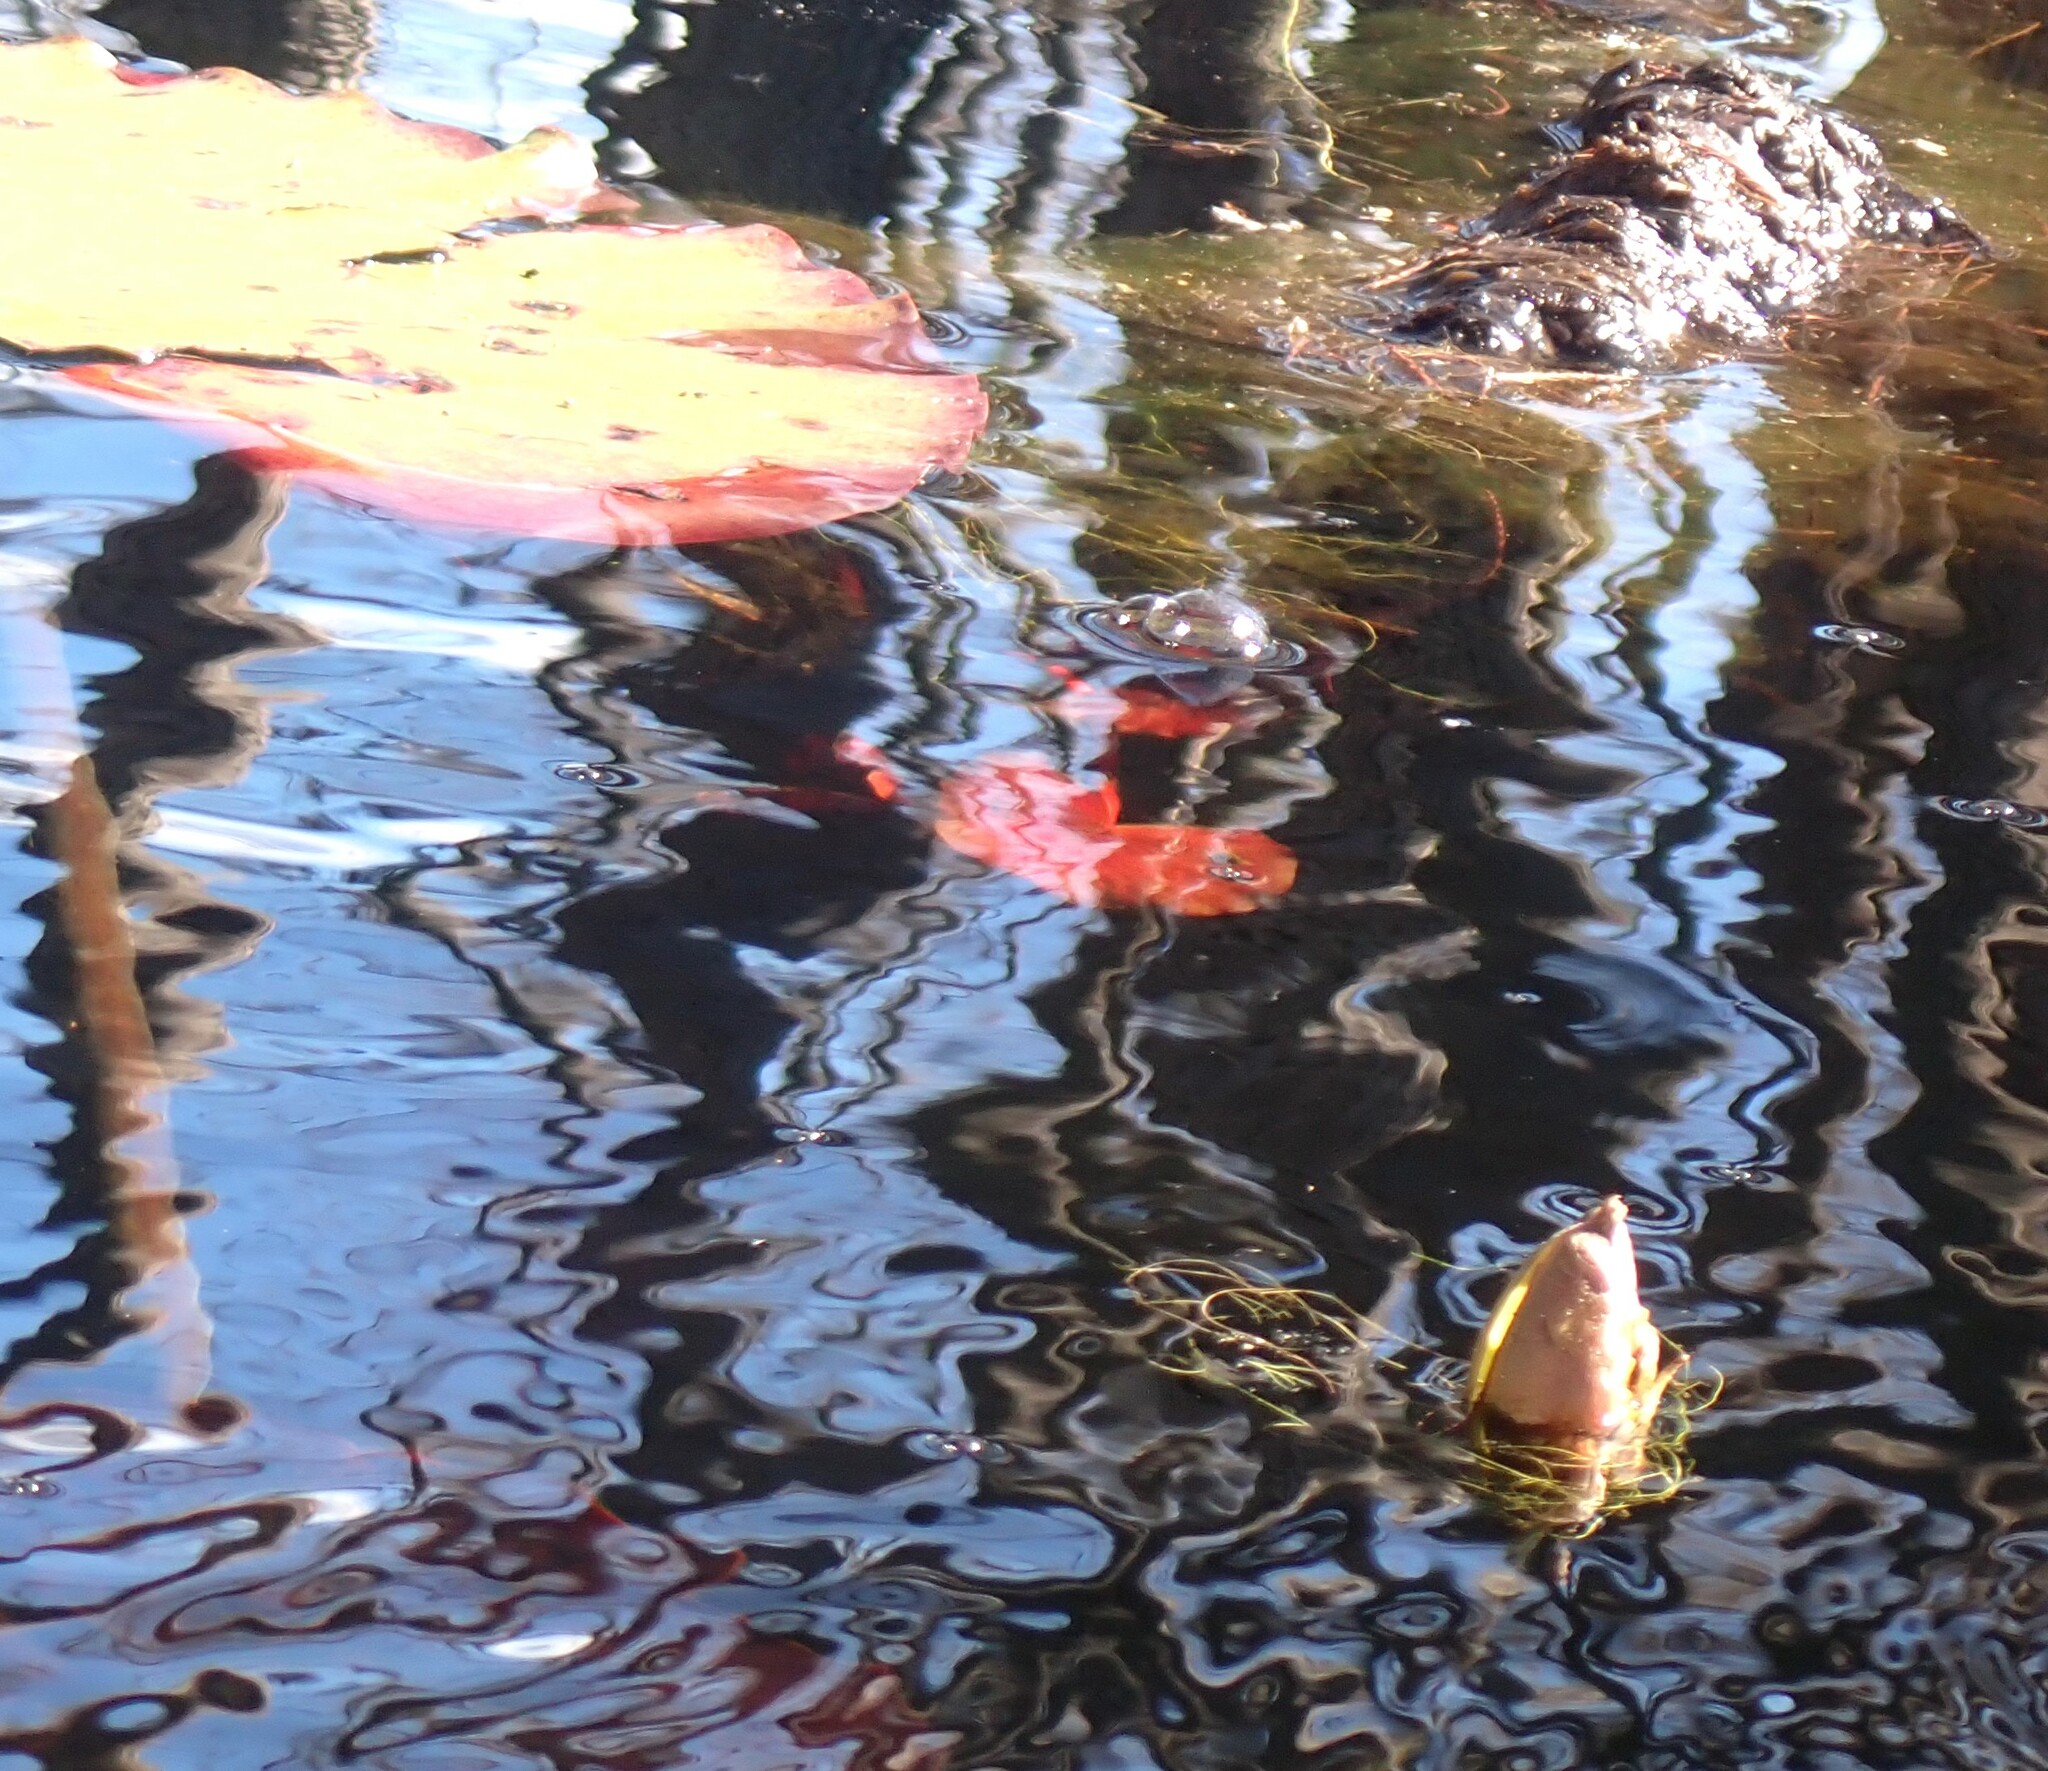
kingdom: Plantae
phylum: Tracheophyta
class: Magnoliopsida
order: Nymphaeales
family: Nymphaeaceae
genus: Nymphaea
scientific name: Nymphaea odorata
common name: Fragrant water-lily
